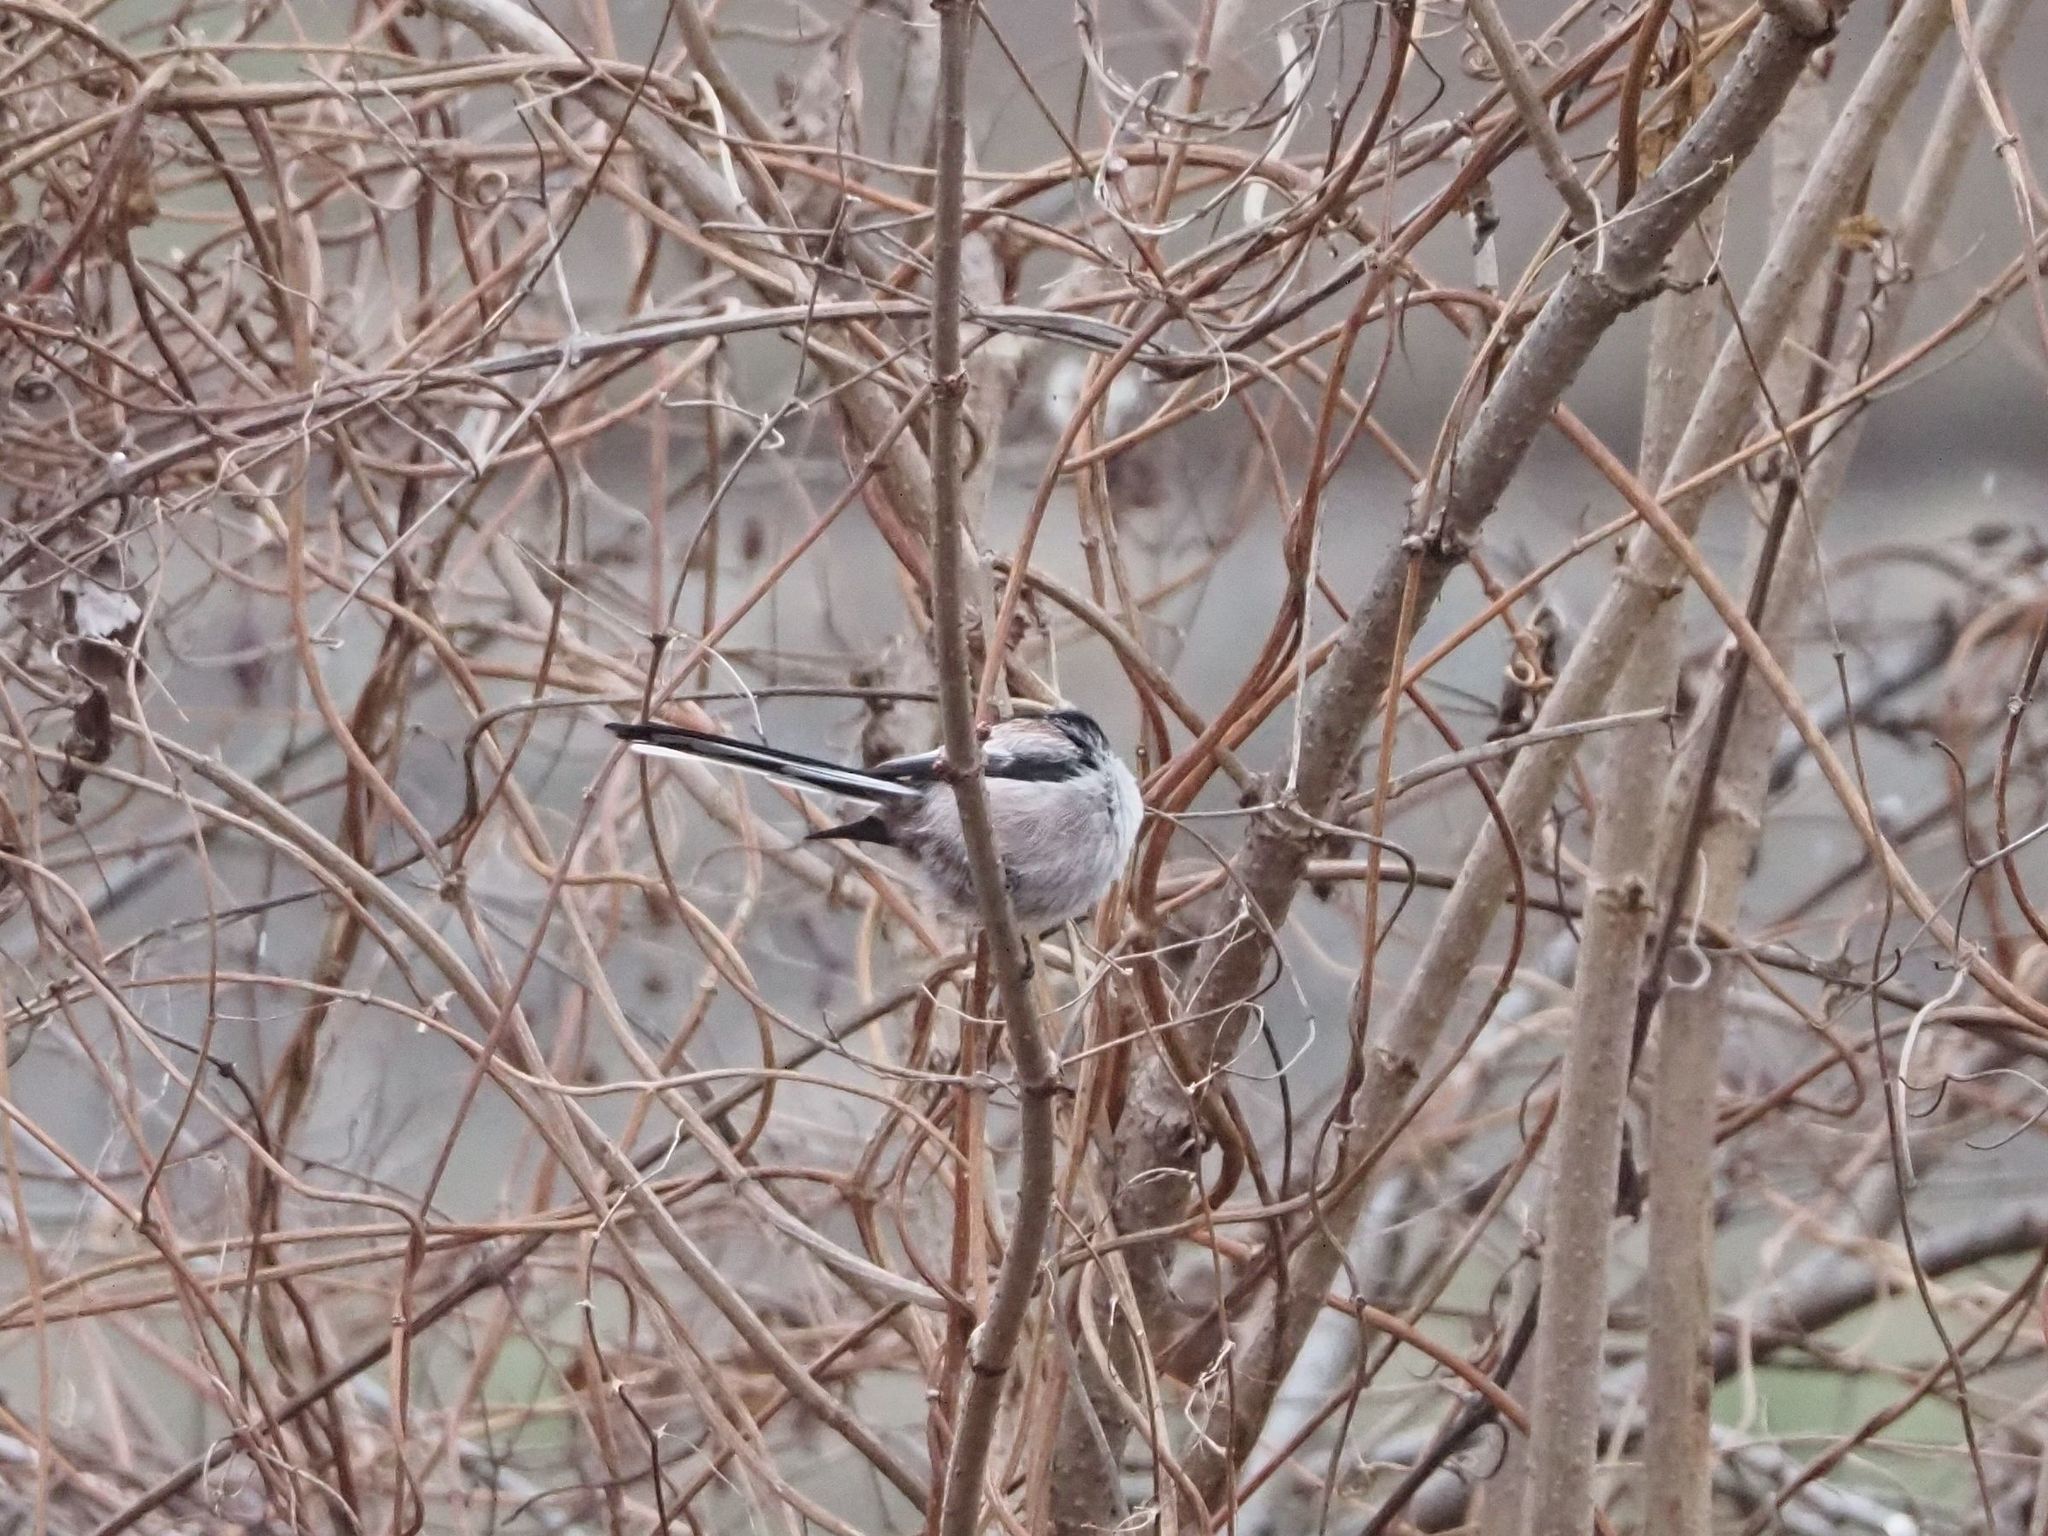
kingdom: Animalia
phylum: Chordata
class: Aves
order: Passeriformes
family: Aegithalidae
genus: Aegithalos
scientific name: Aegithalos caudatus
